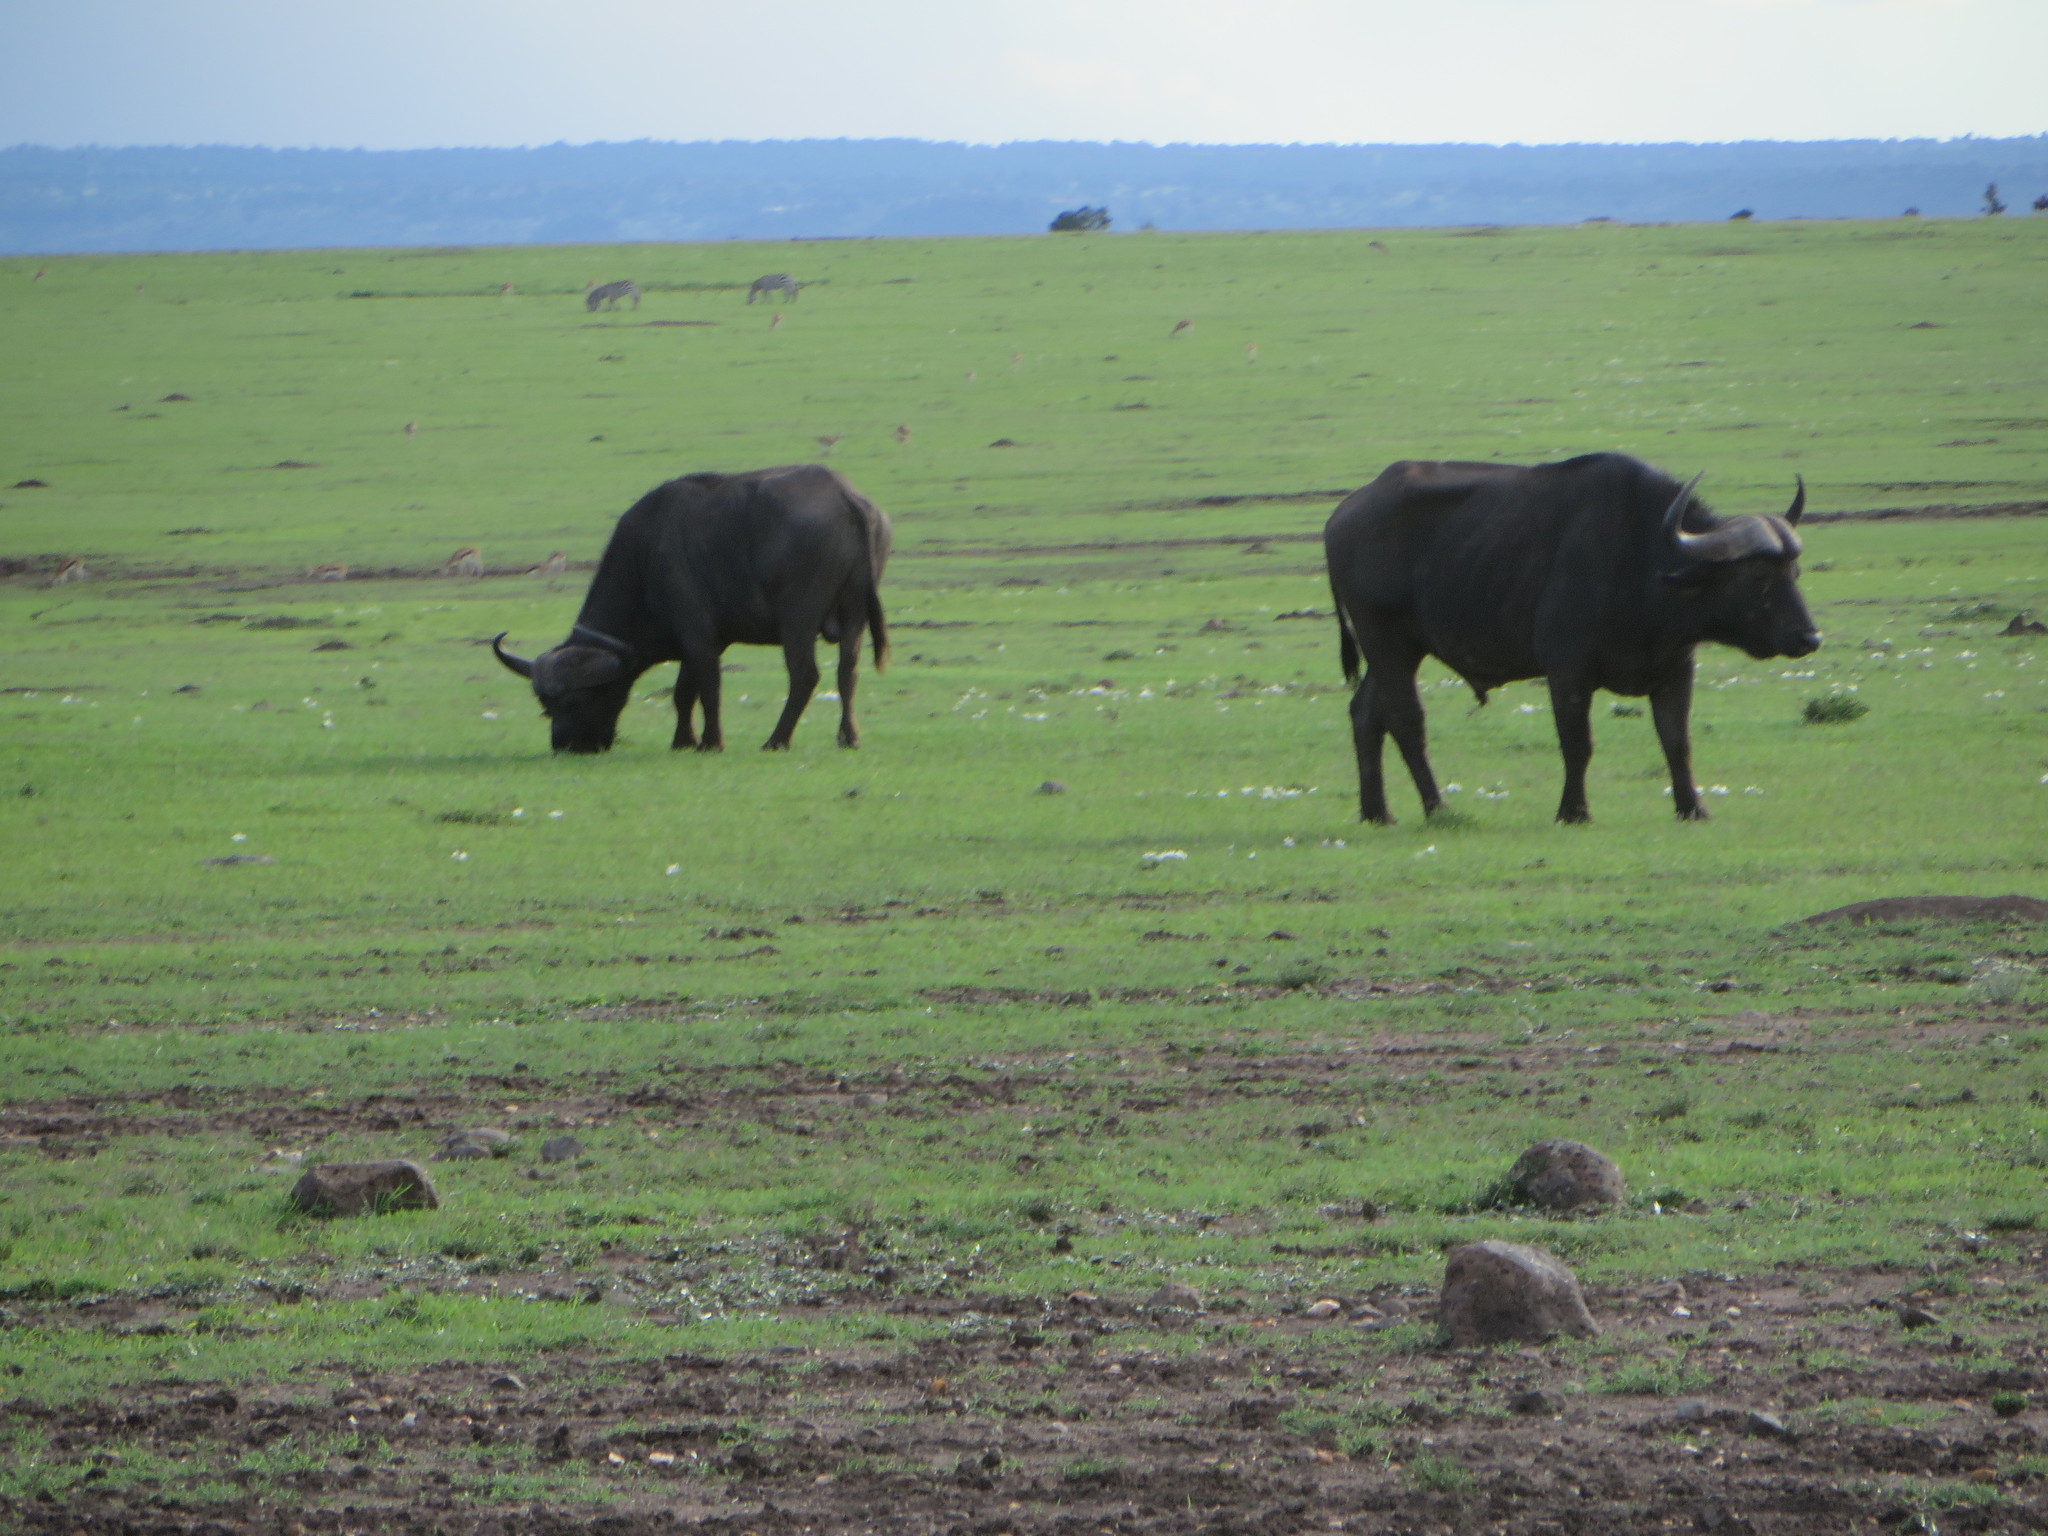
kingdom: Animalia
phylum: Chordata
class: Mammalia
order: Artiodactyla
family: Bovidae
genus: Syncerus
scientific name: Syncerus caffer
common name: African buffalo
